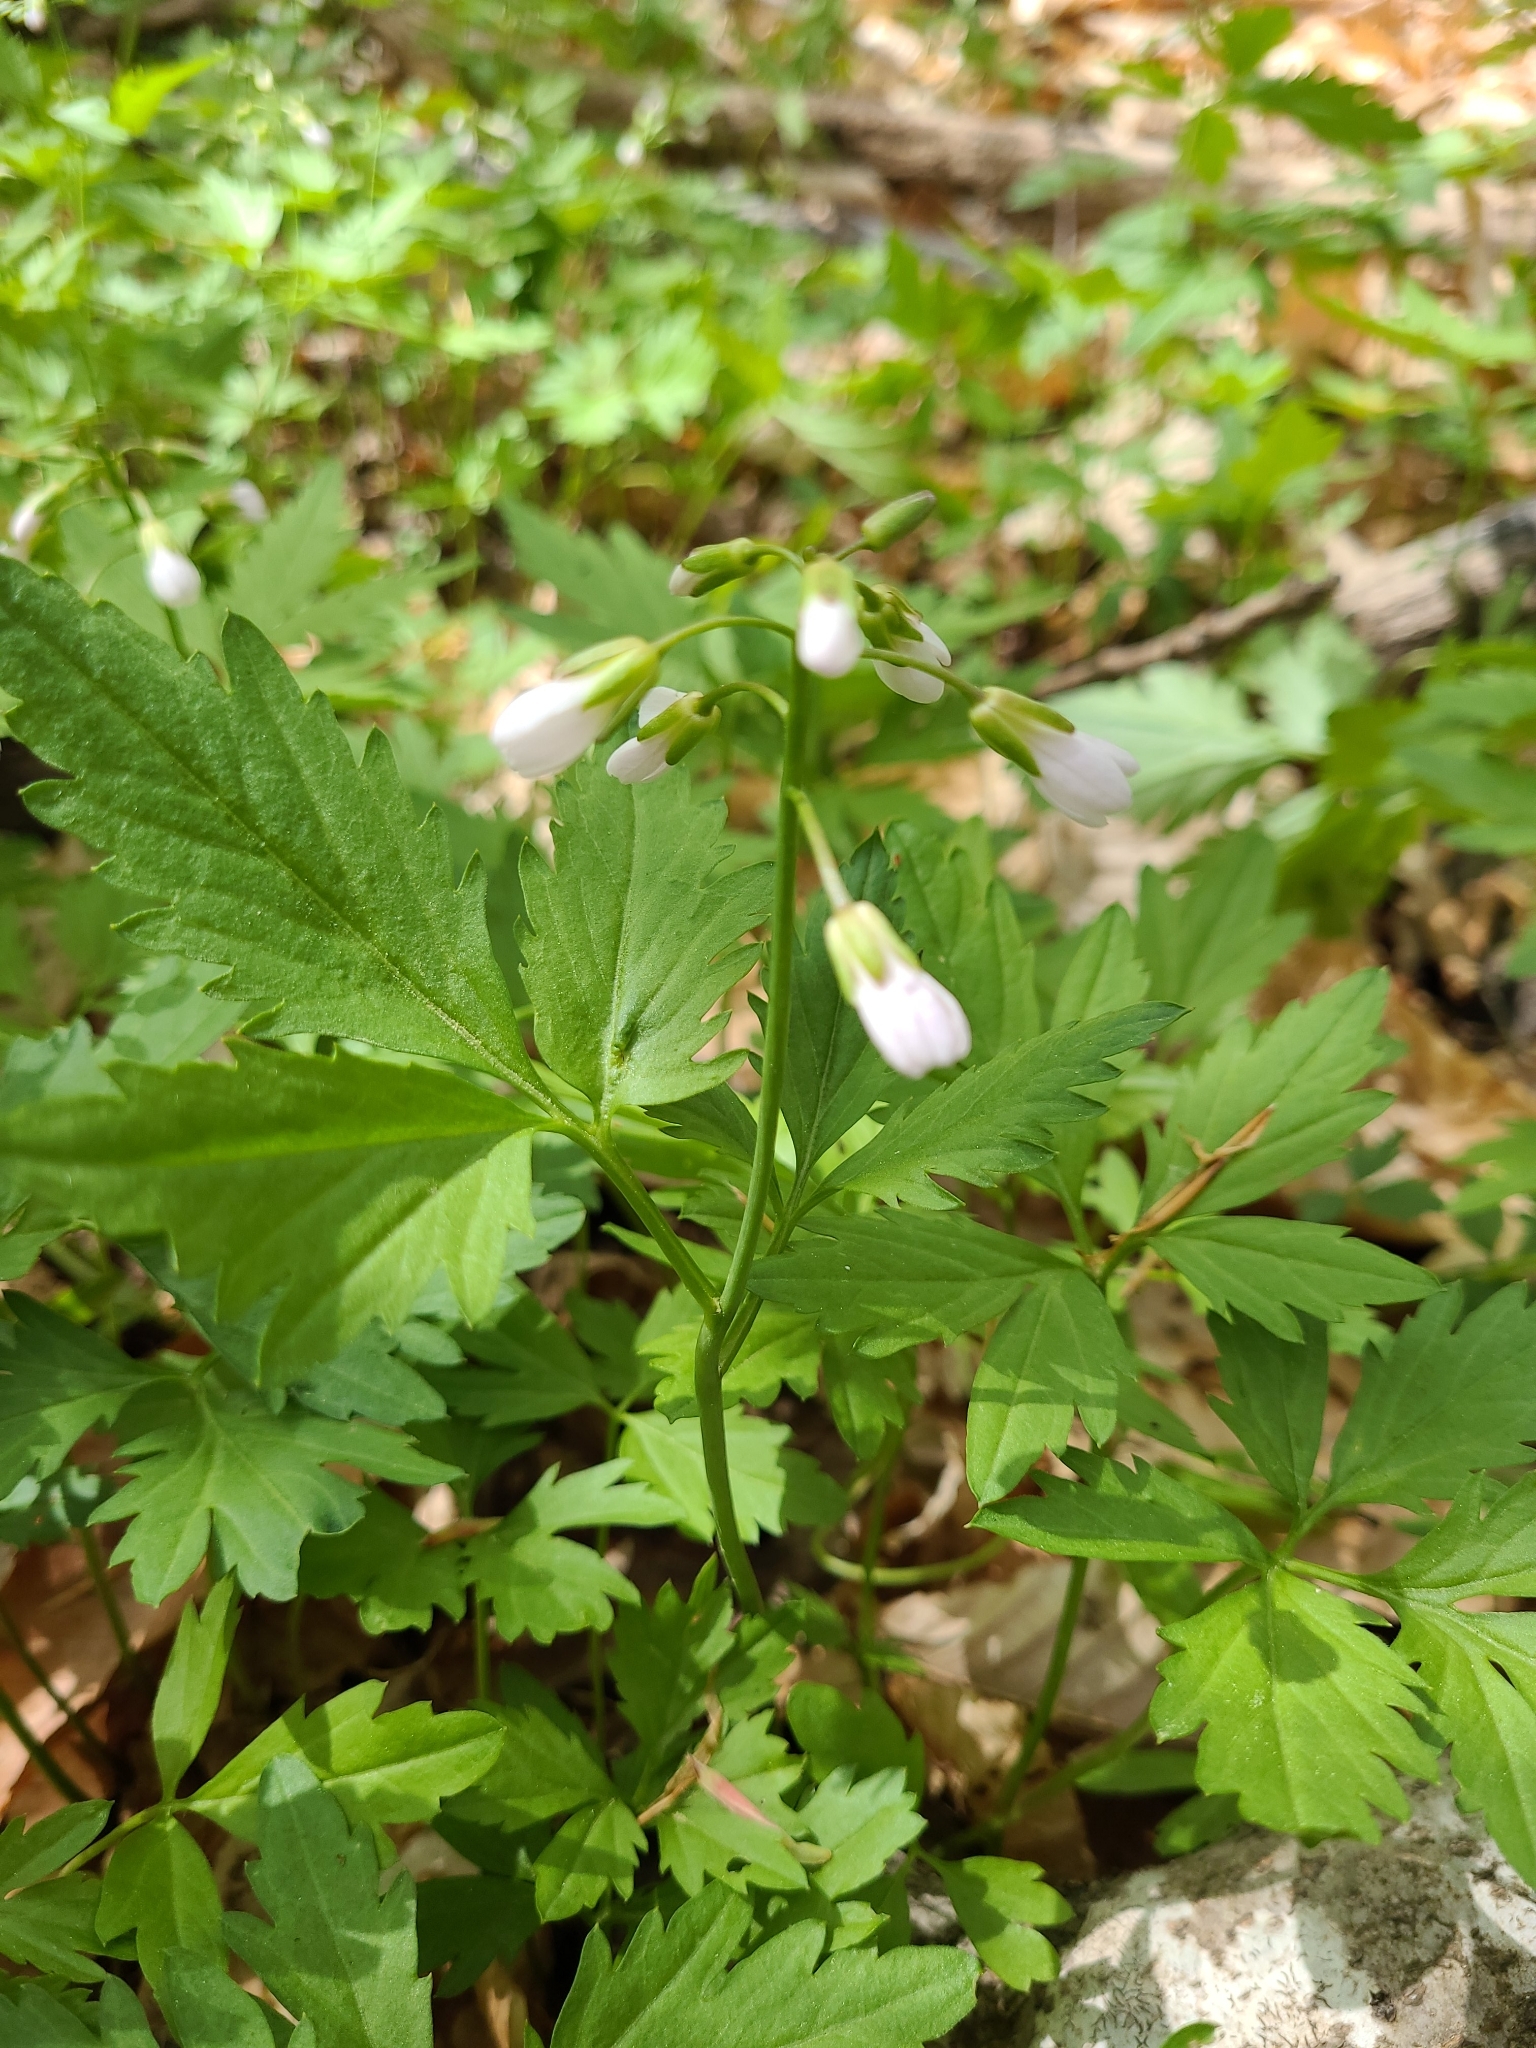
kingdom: Plantae
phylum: Tracheophyta
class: Magnoliopsida
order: Brassicales
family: Brassicaceae
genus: Cardamine
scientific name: Cardamine diphylla
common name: Broad-leaved toothwort
